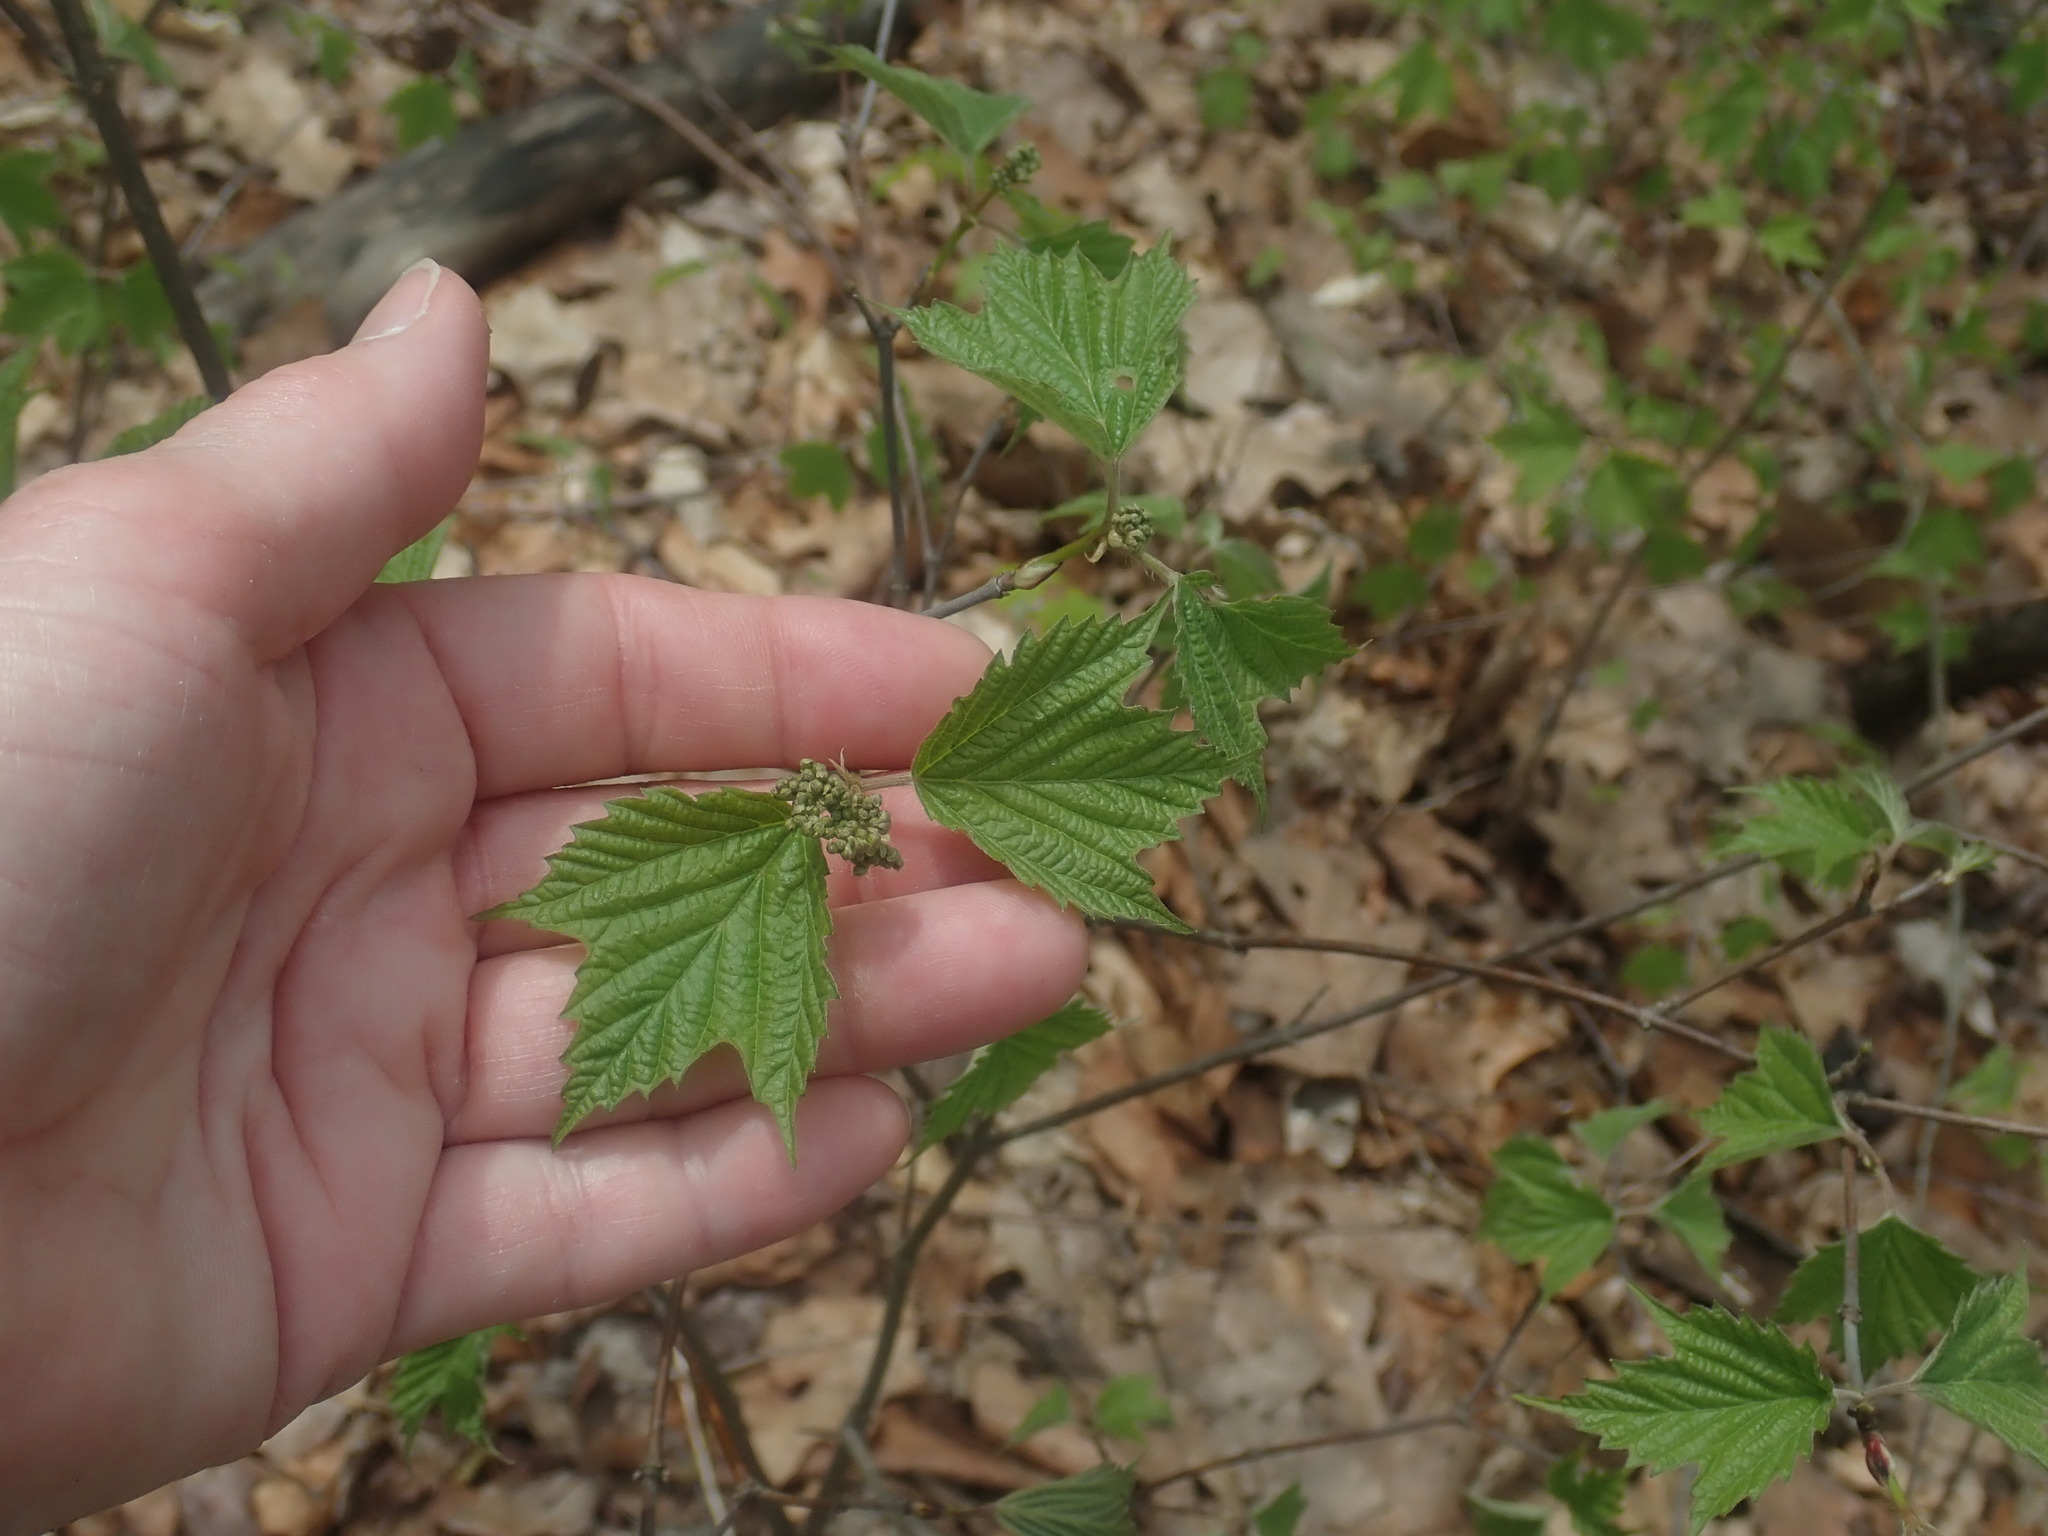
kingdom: Plantae
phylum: Tracheophyta
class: Magnoliopsida
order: Dipsacales
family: Viburnaceae
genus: Viburnum
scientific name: Viburnum acerifolium
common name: Dockmackie
